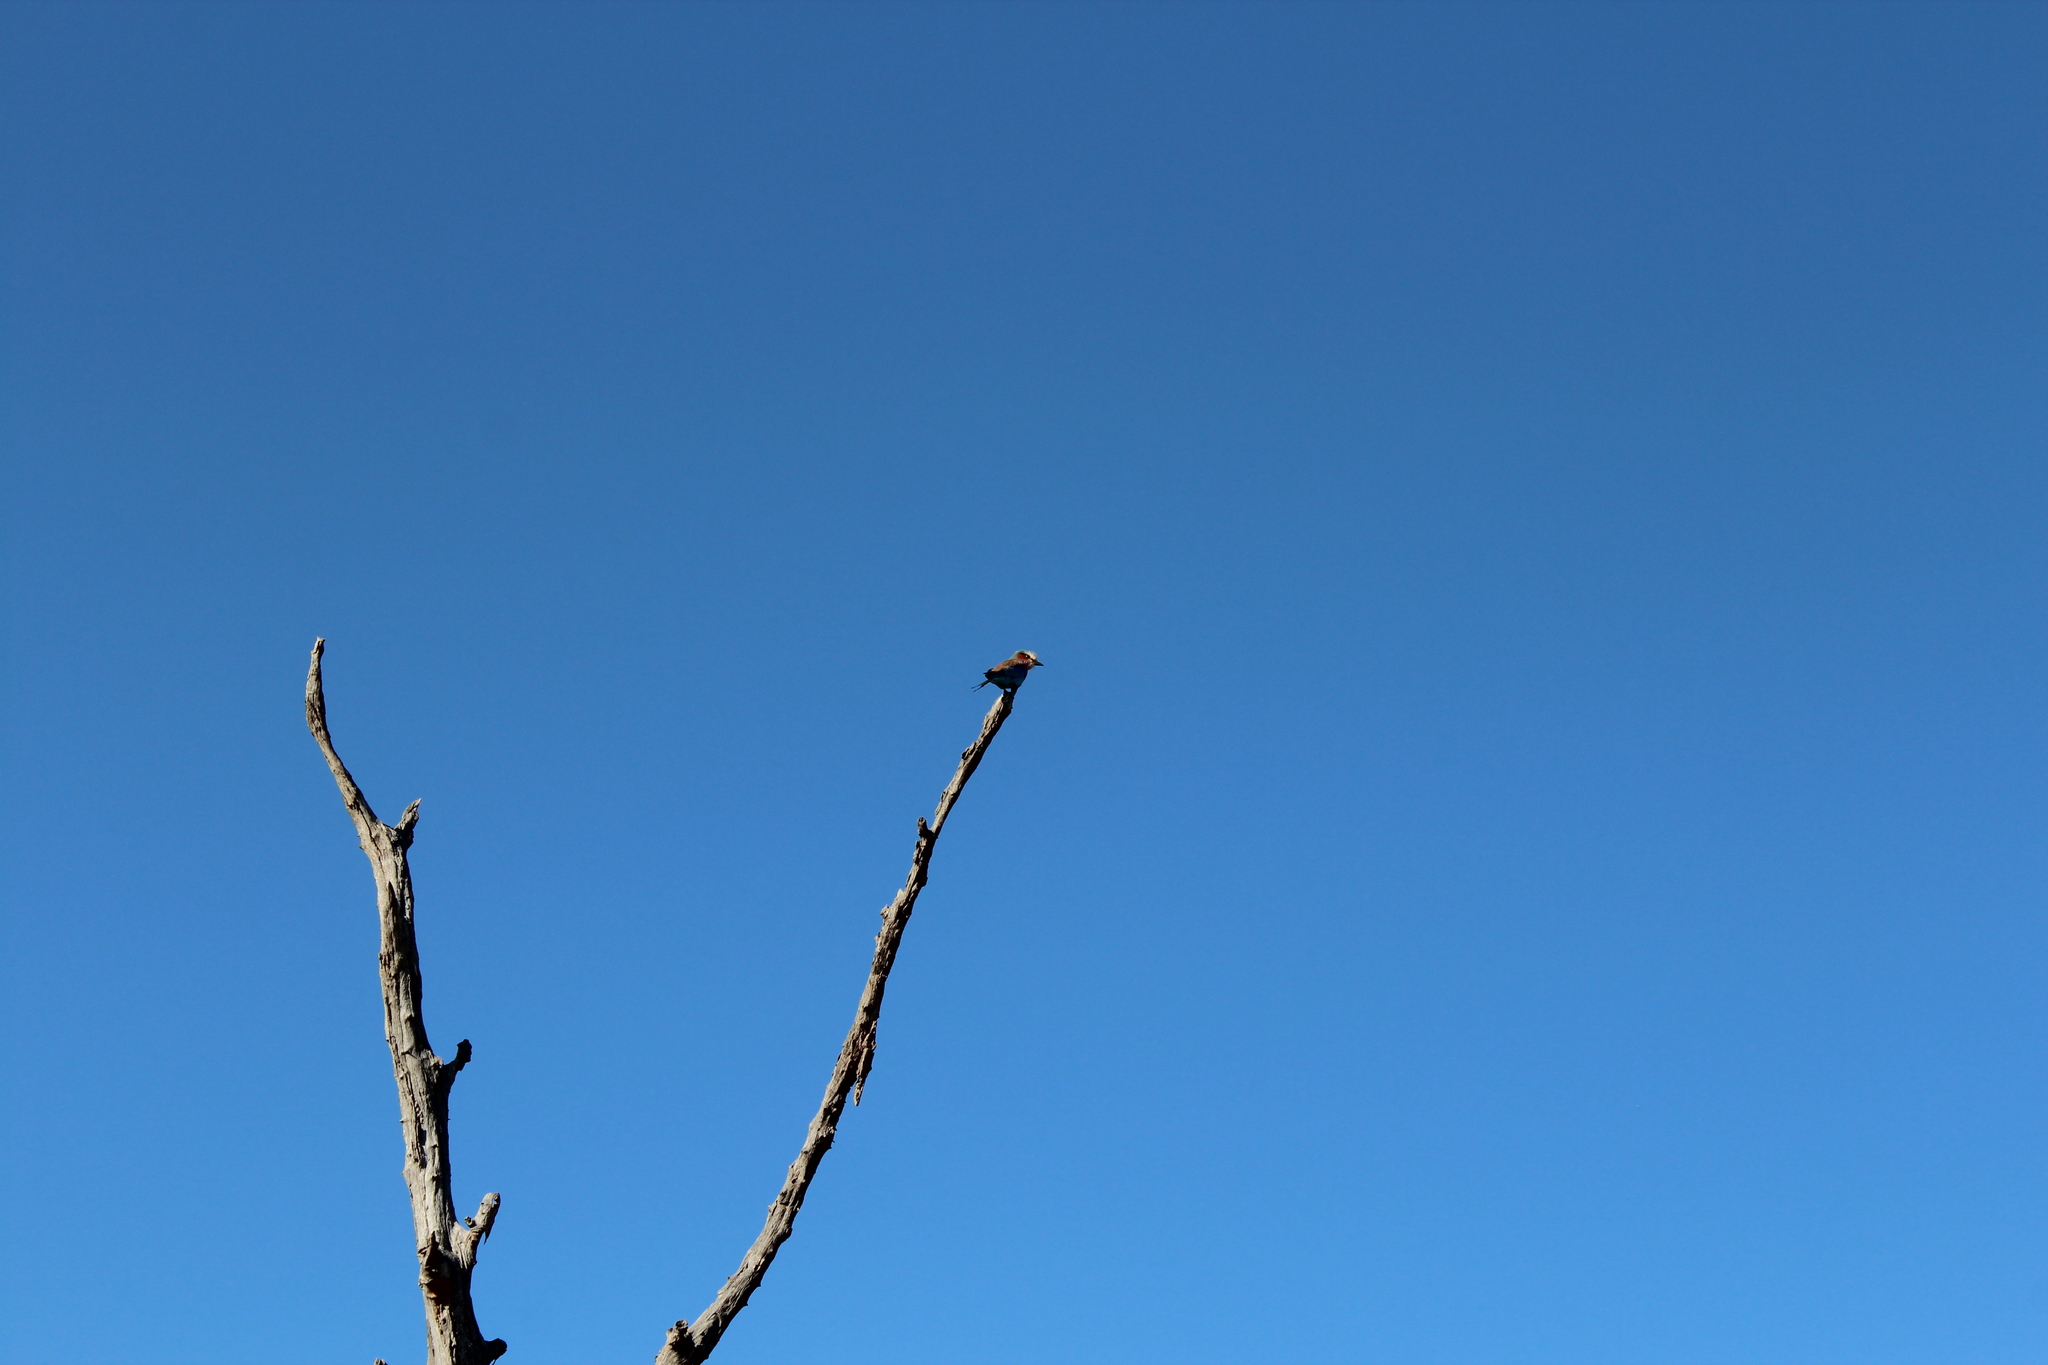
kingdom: Animalia
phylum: Chordata
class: Aves
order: Coraciiformes
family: Coraciidae
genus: Coracias
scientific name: Coracias caudatus
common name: Lilac-breasted roller
